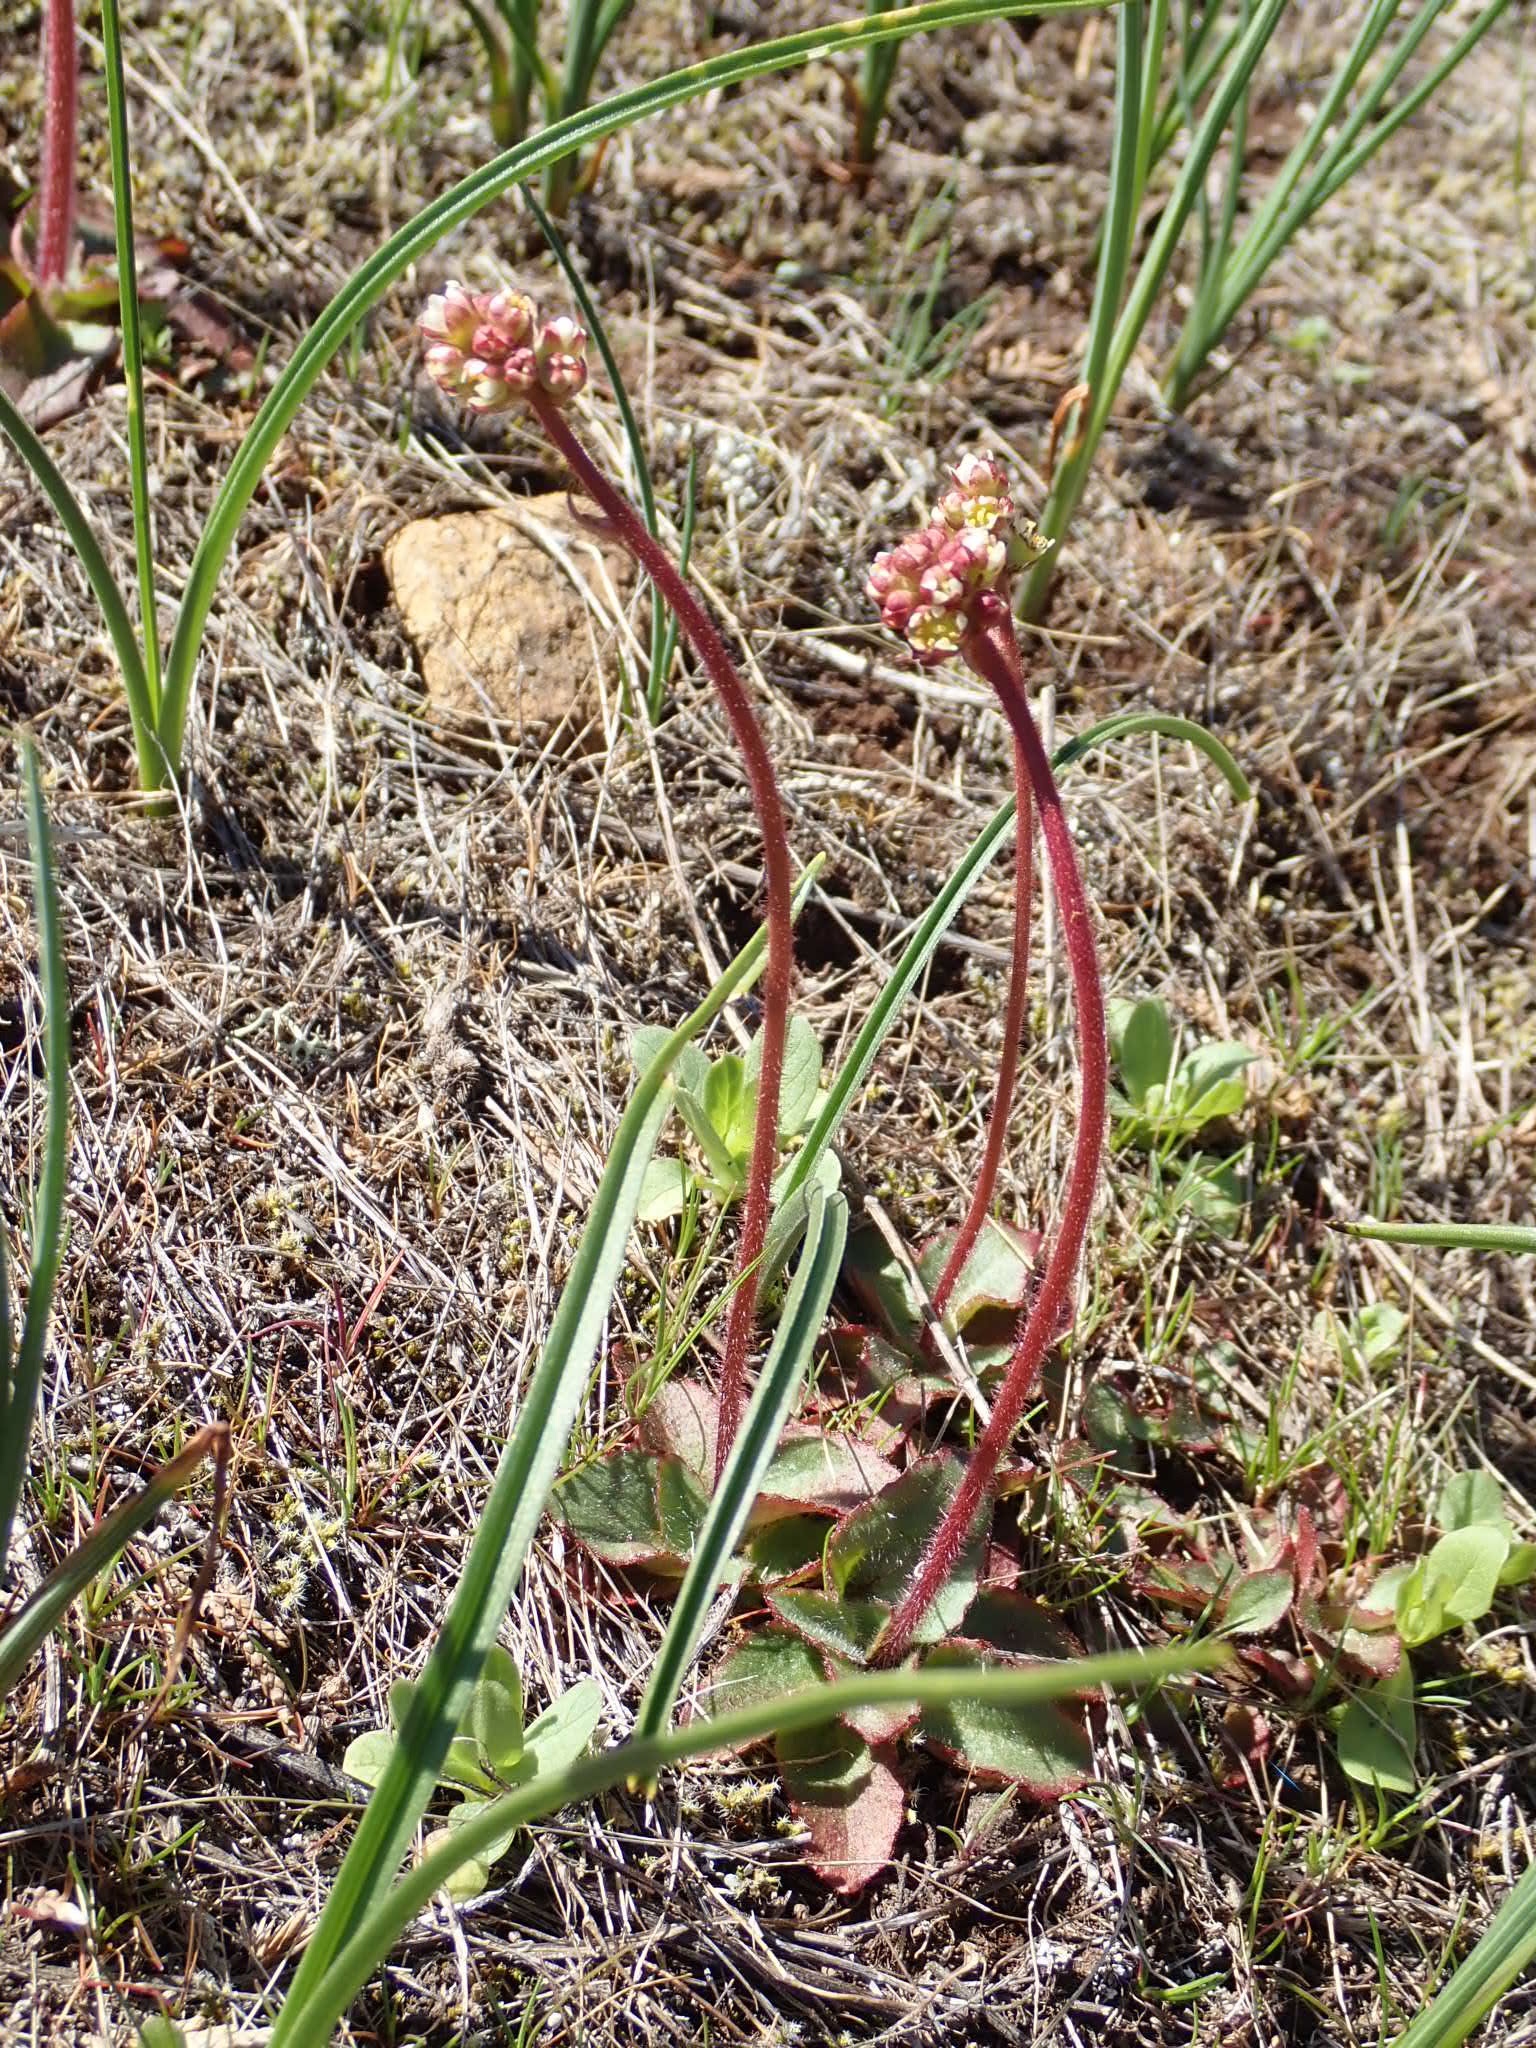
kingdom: Plantae
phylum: Tracheophyta
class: Magnoliopsida
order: Saxifragales
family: Saxifragaceae
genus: Micranthes
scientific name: Micranthes integrifolia
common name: Wholeleaf saxifrage
